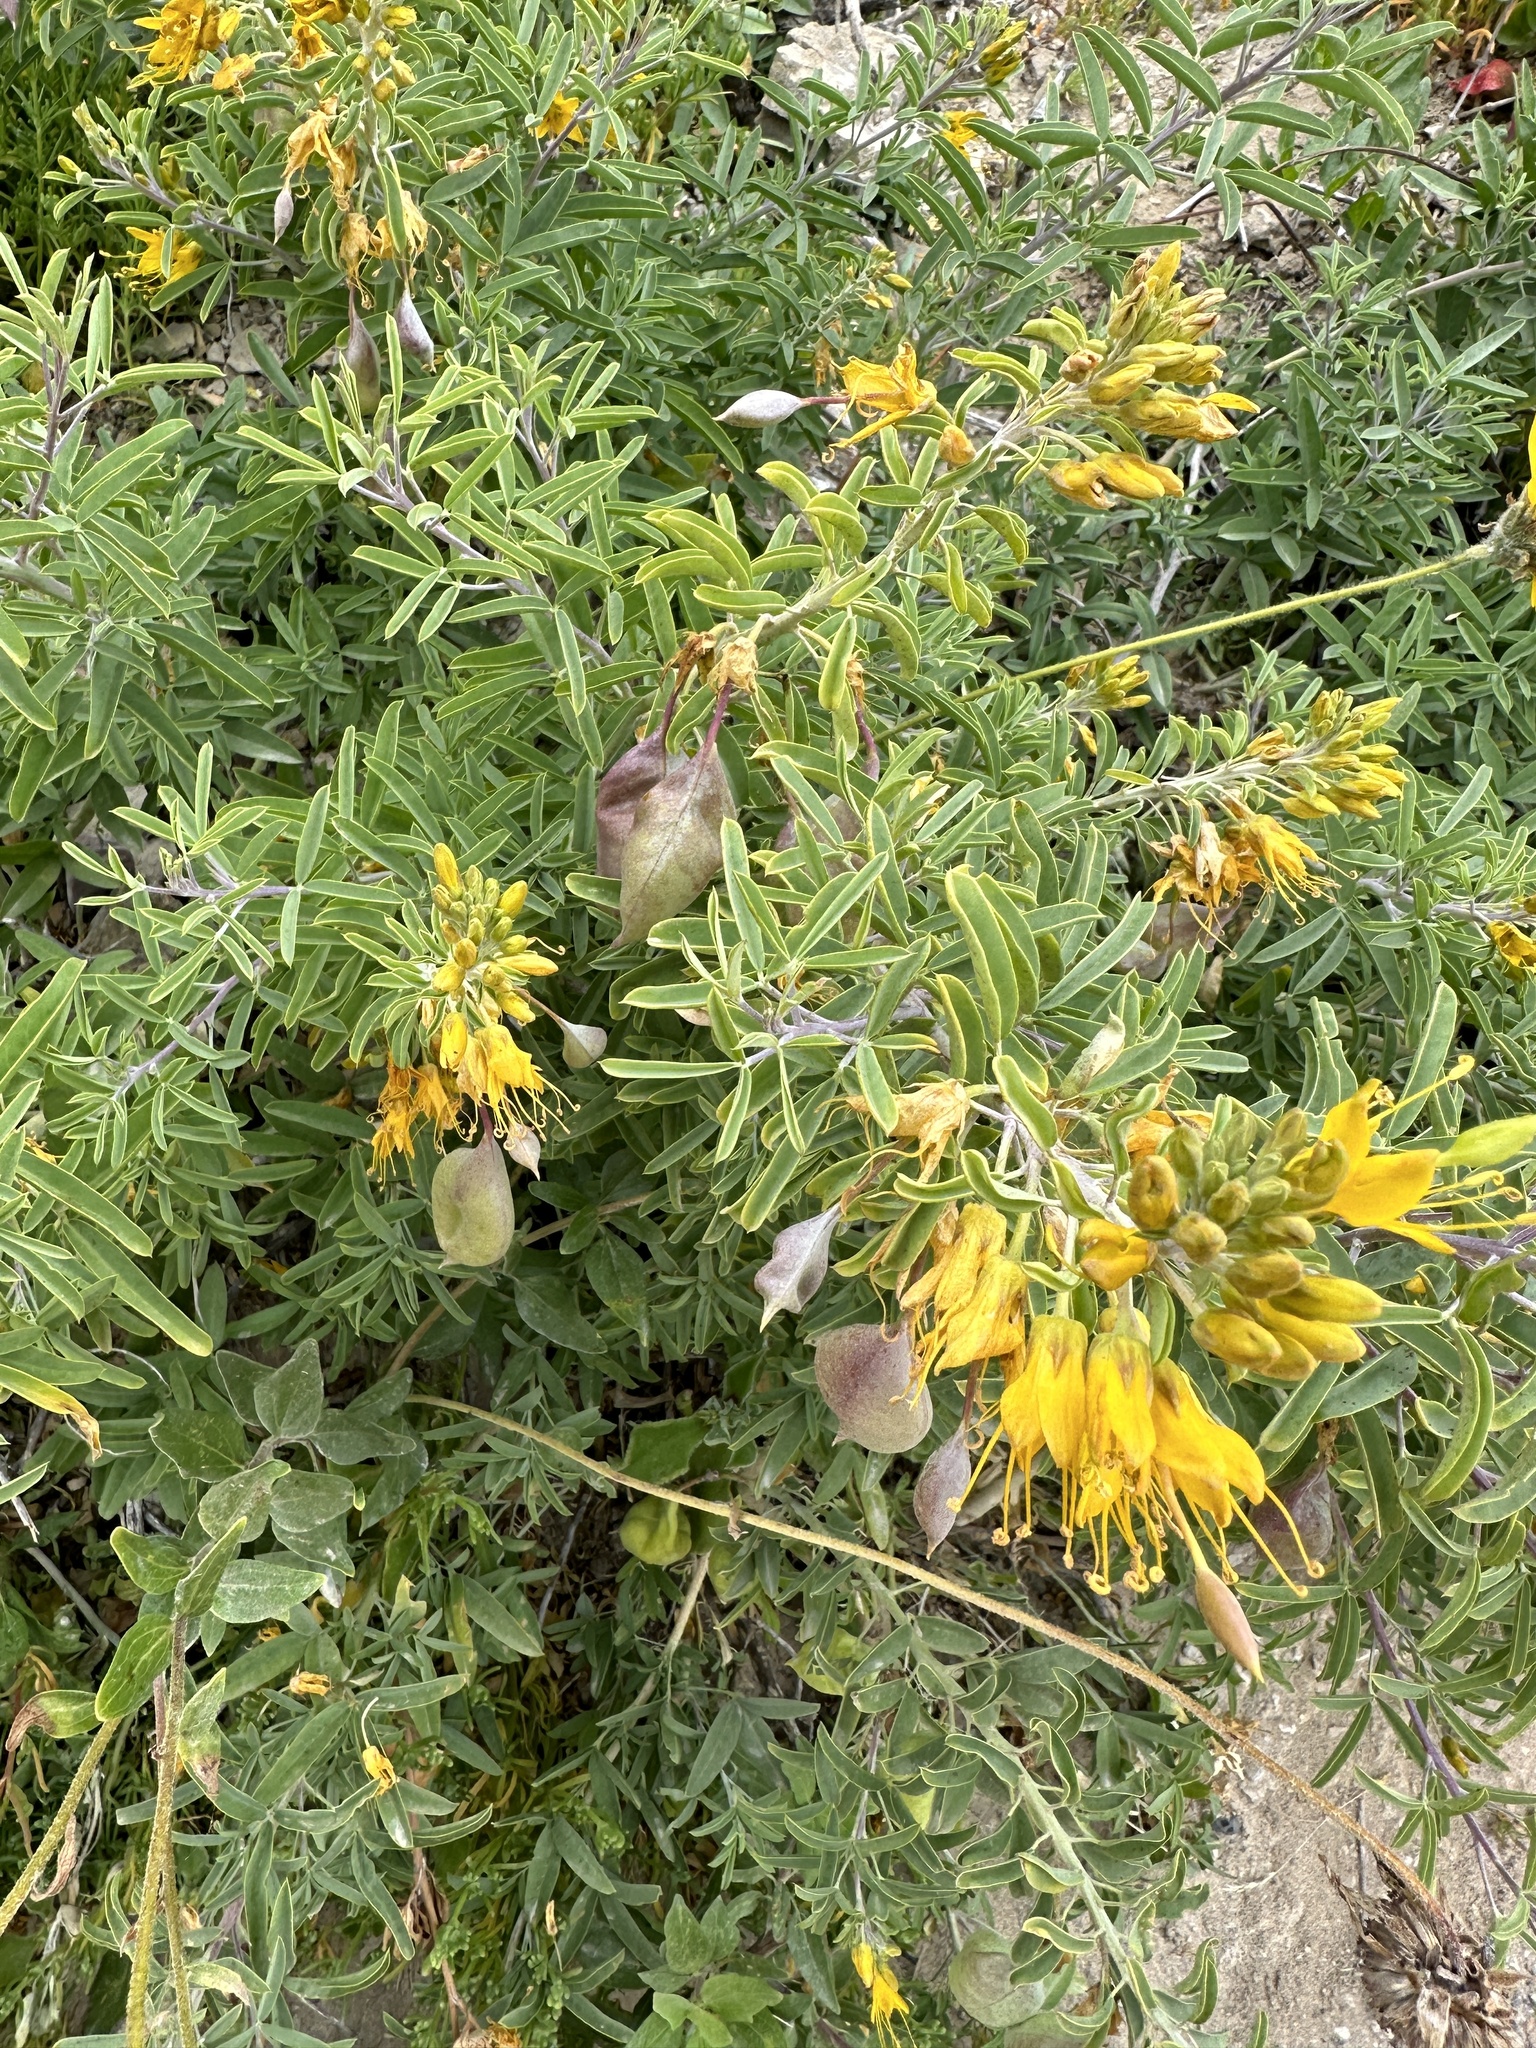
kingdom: Plantae
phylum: Tracheophyta
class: Magnoliopsida
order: Brassicales
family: Cleomaceae
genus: Cleomella
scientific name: Cleomella arborea
